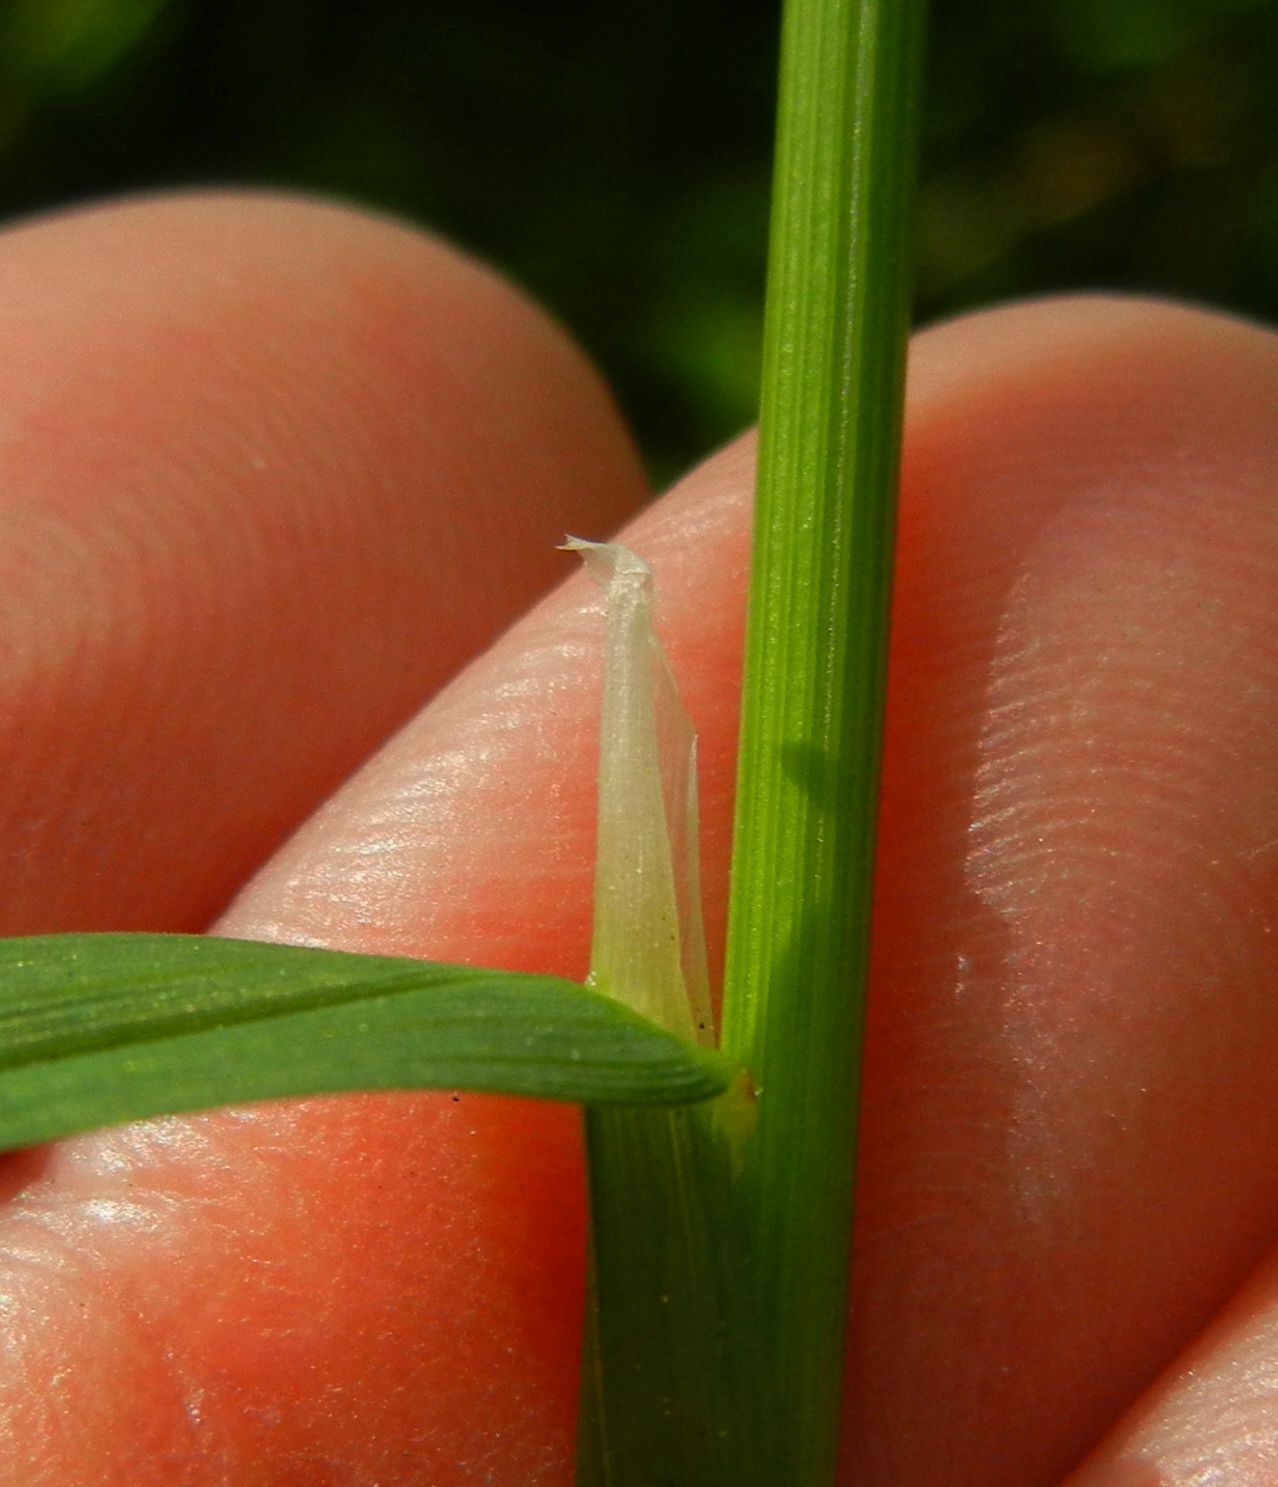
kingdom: Plantae
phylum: Tracheophyta
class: Liliopsida
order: Poales
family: Poaceae
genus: Poa
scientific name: Poa trivialis
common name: Rough bluegrass
